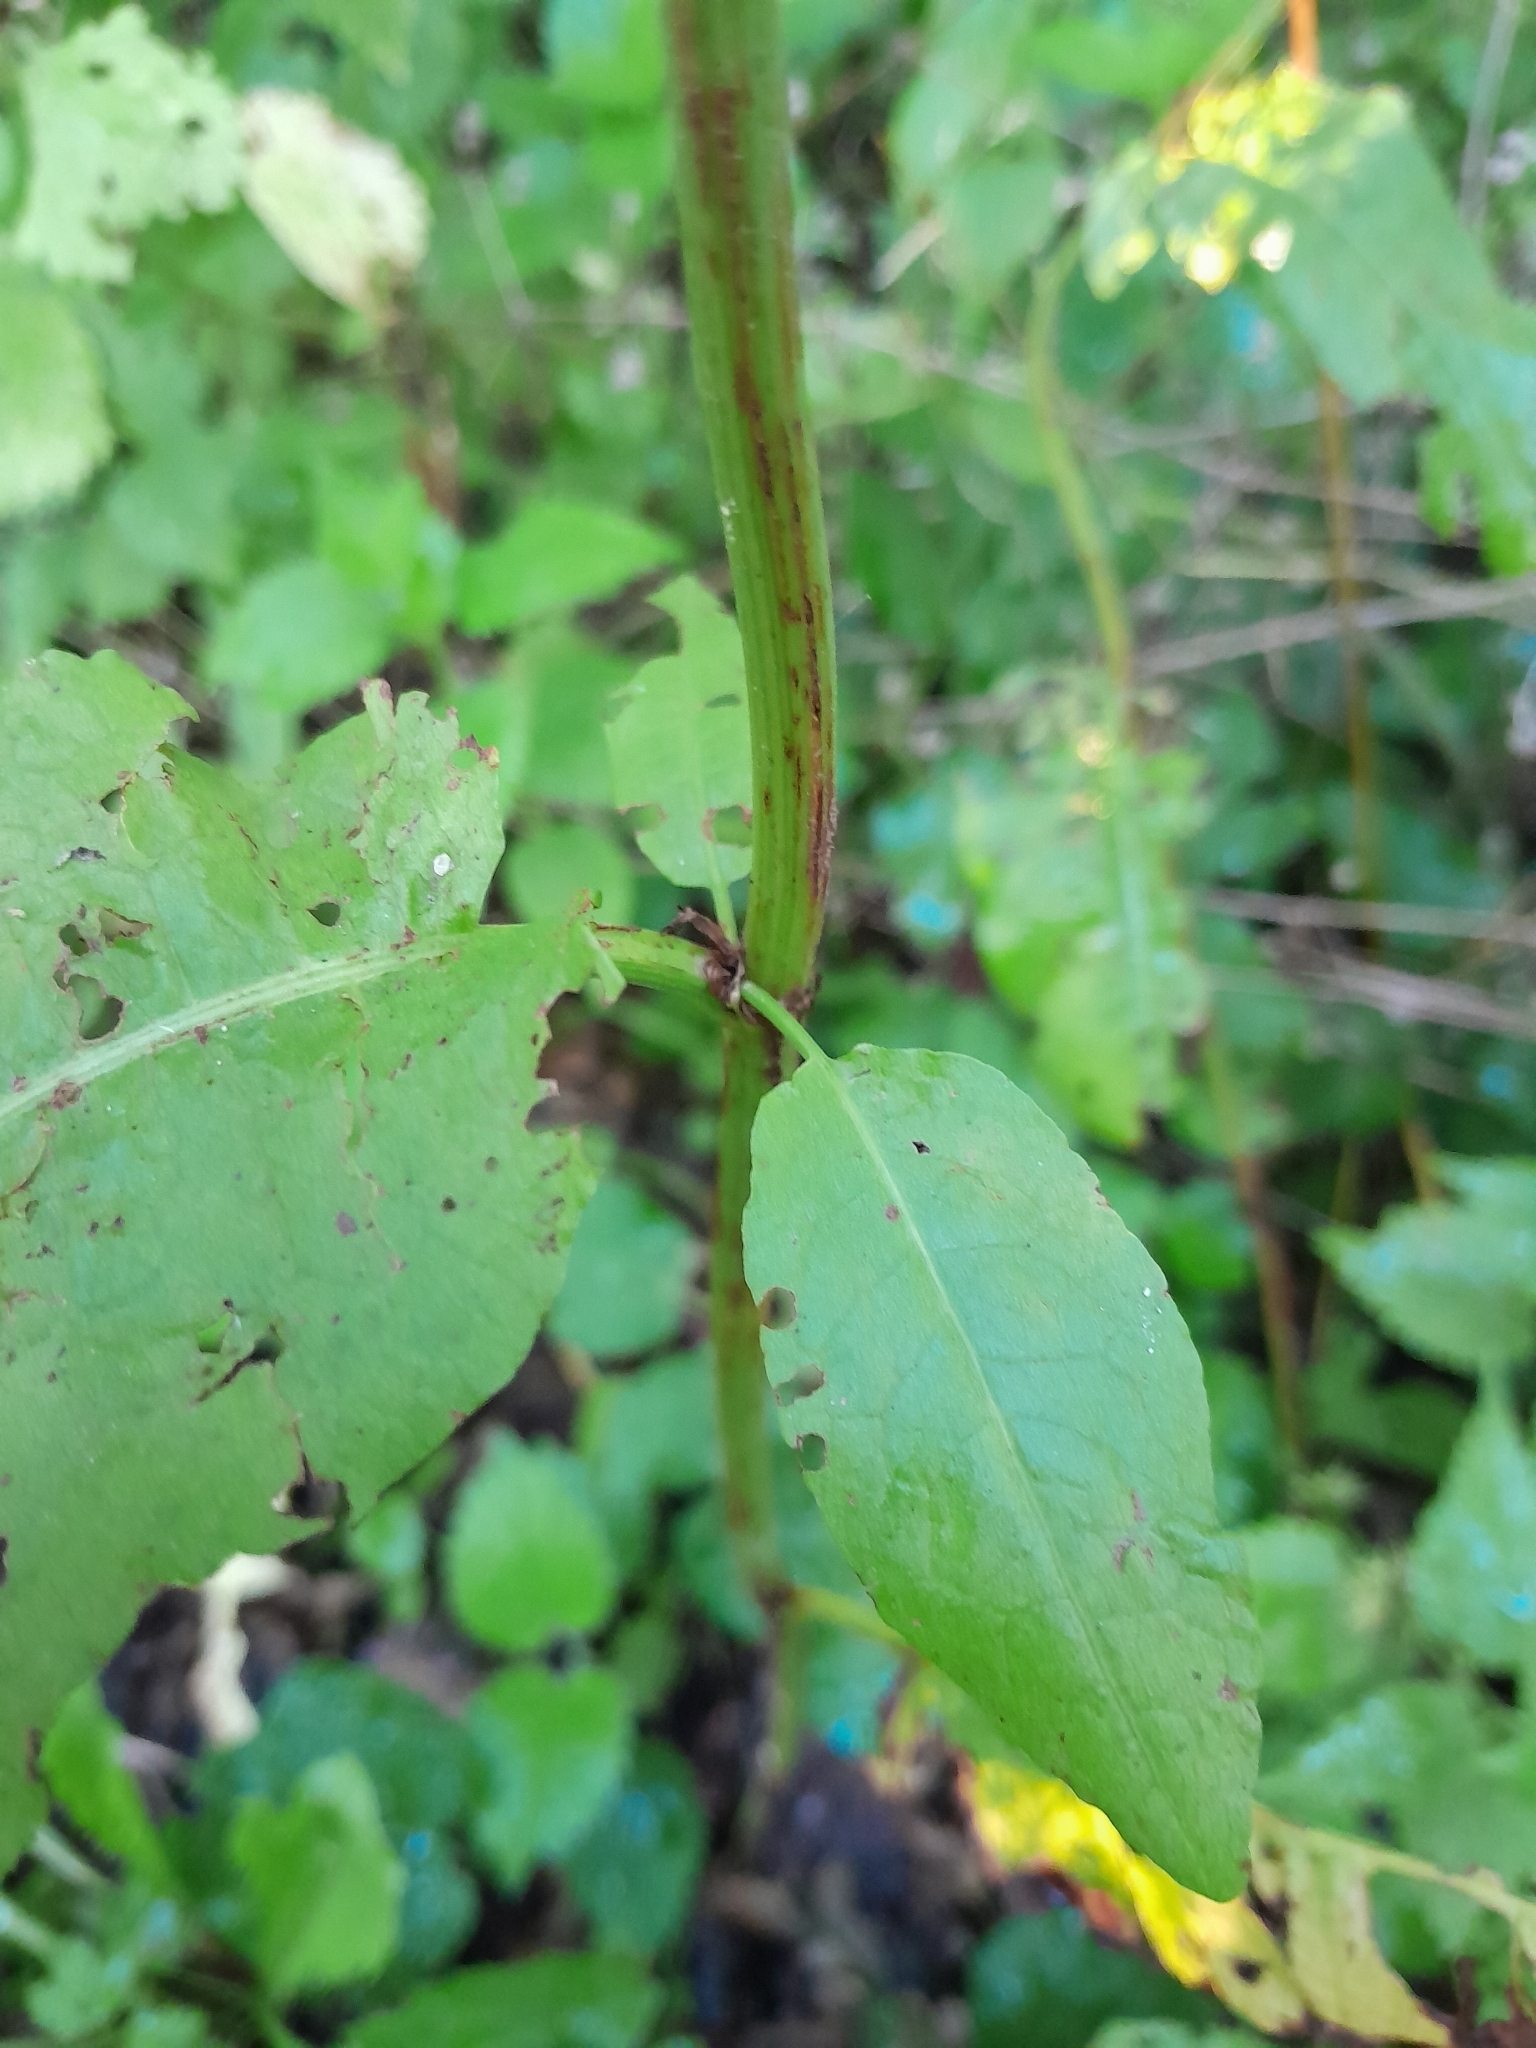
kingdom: Plantae
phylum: Tracheophyta
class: Magnoliopsida
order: Caryophyllales
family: Polygonaceae
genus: Rumex
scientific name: Rumex sanguineus
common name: Wood dock
